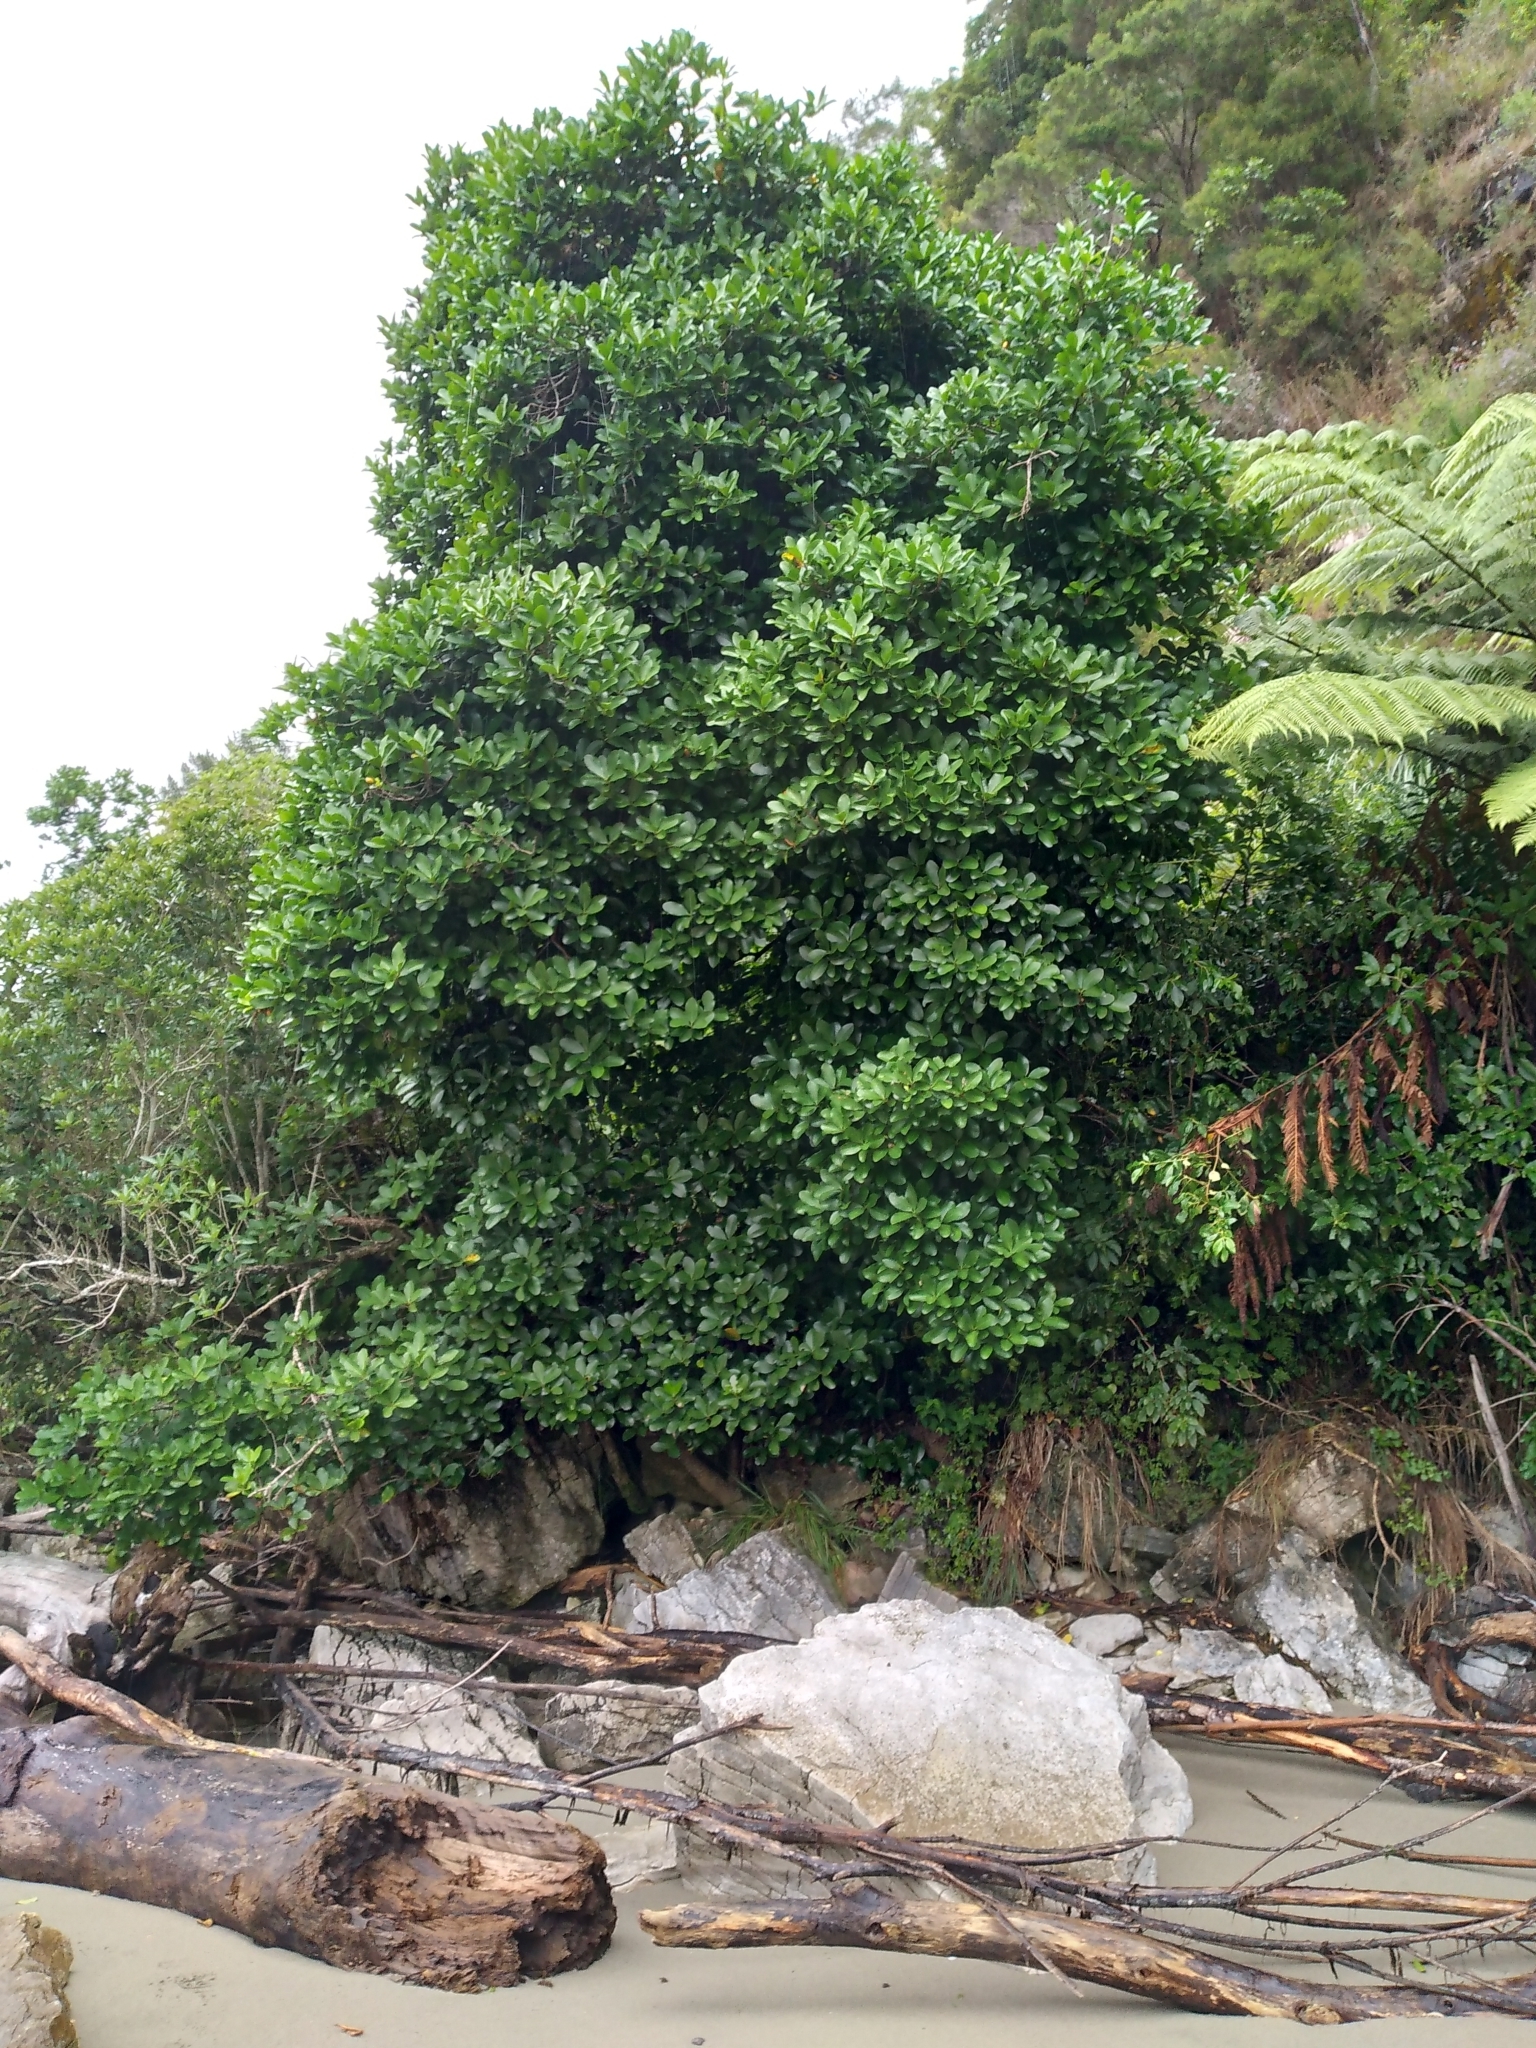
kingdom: Plantae
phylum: Tracheophyta
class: Magnoliopsida
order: Cucurbitales
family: Corynocarpaceae
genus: Corynocarpus
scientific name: Corynocarpus laevigatus
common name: New zealand laurel
